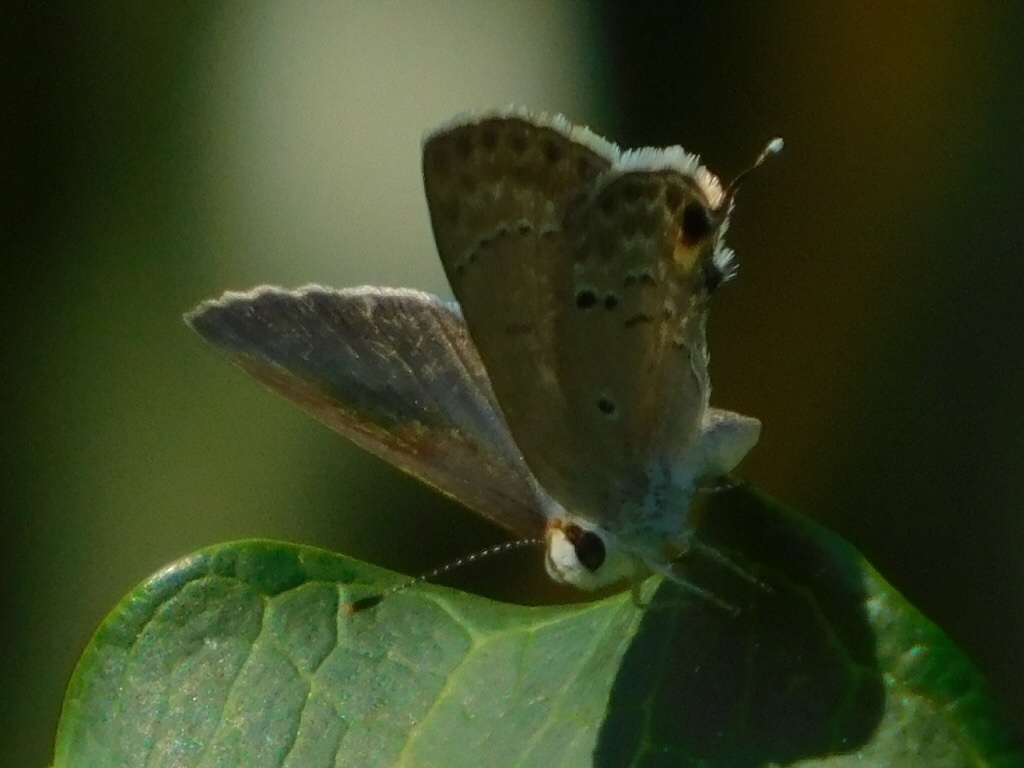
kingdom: Animalia
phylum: Arthropoda
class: Insecta
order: Lepidoptera
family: Lycaenidae
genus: Callicista
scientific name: Callicista columella
